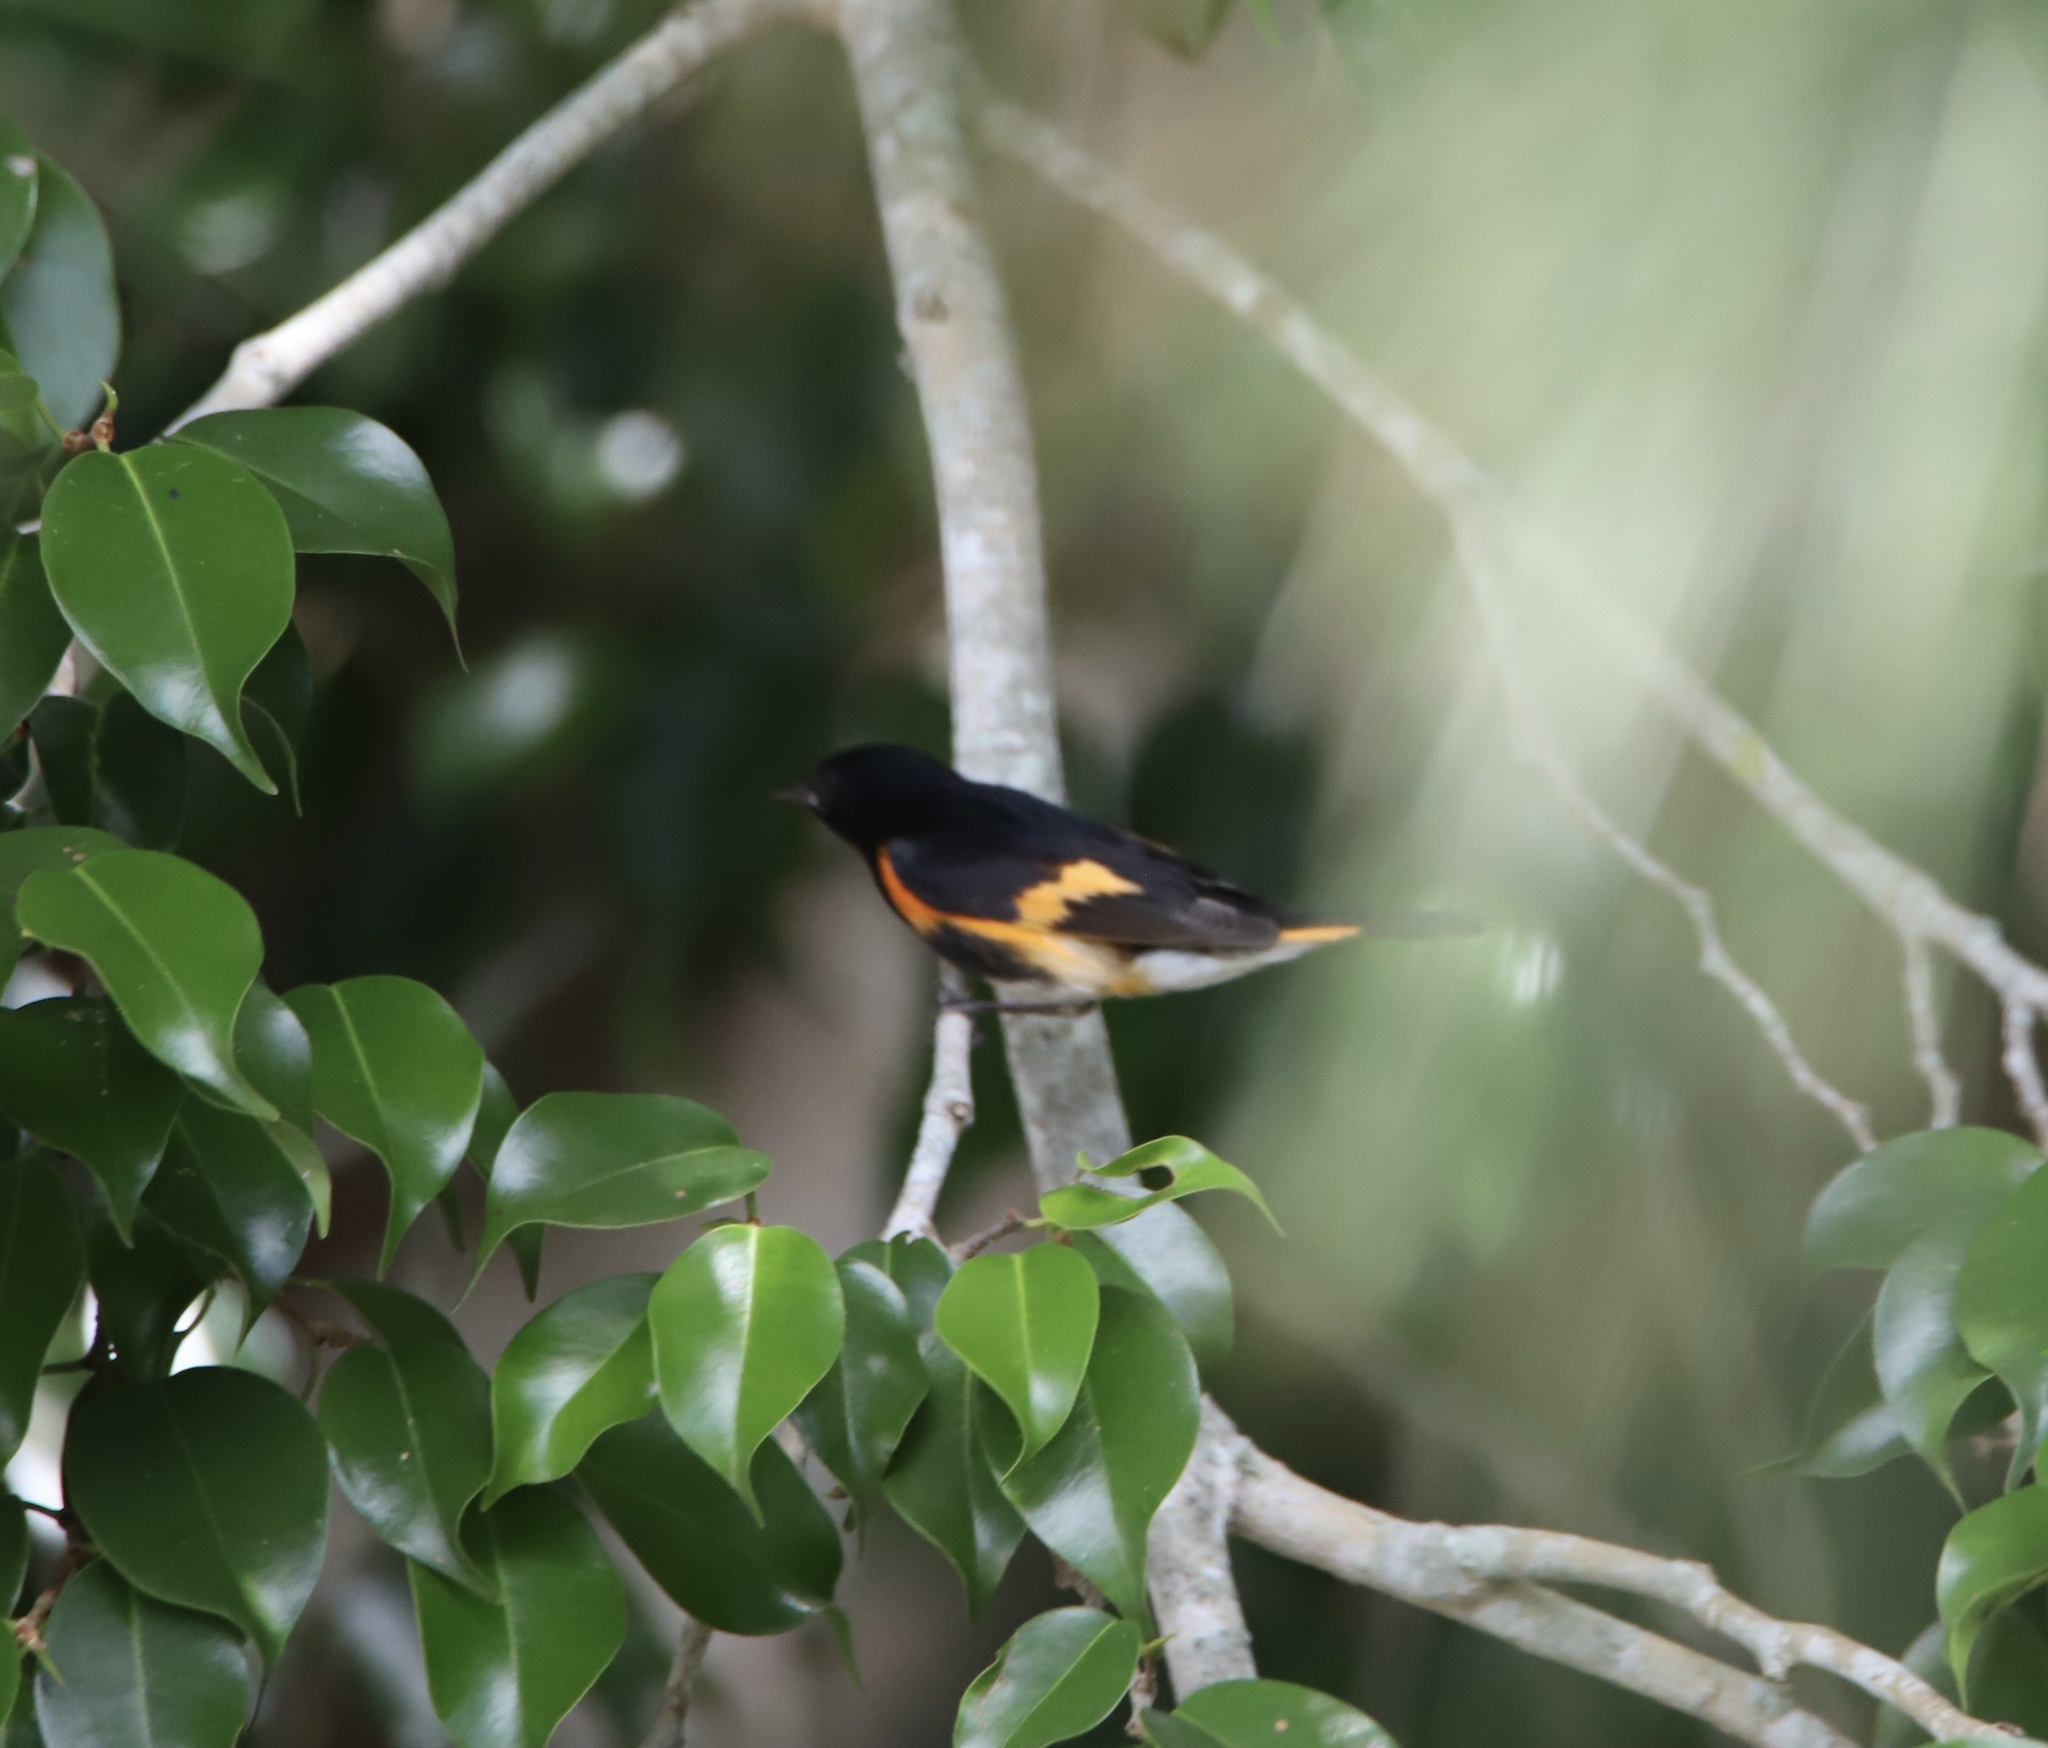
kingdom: Animalia
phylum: Chordata
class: Aves
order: Passeriformes
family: Parulidae
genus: Setophaga
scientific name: Setophaga ruticilla
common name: American redstart
